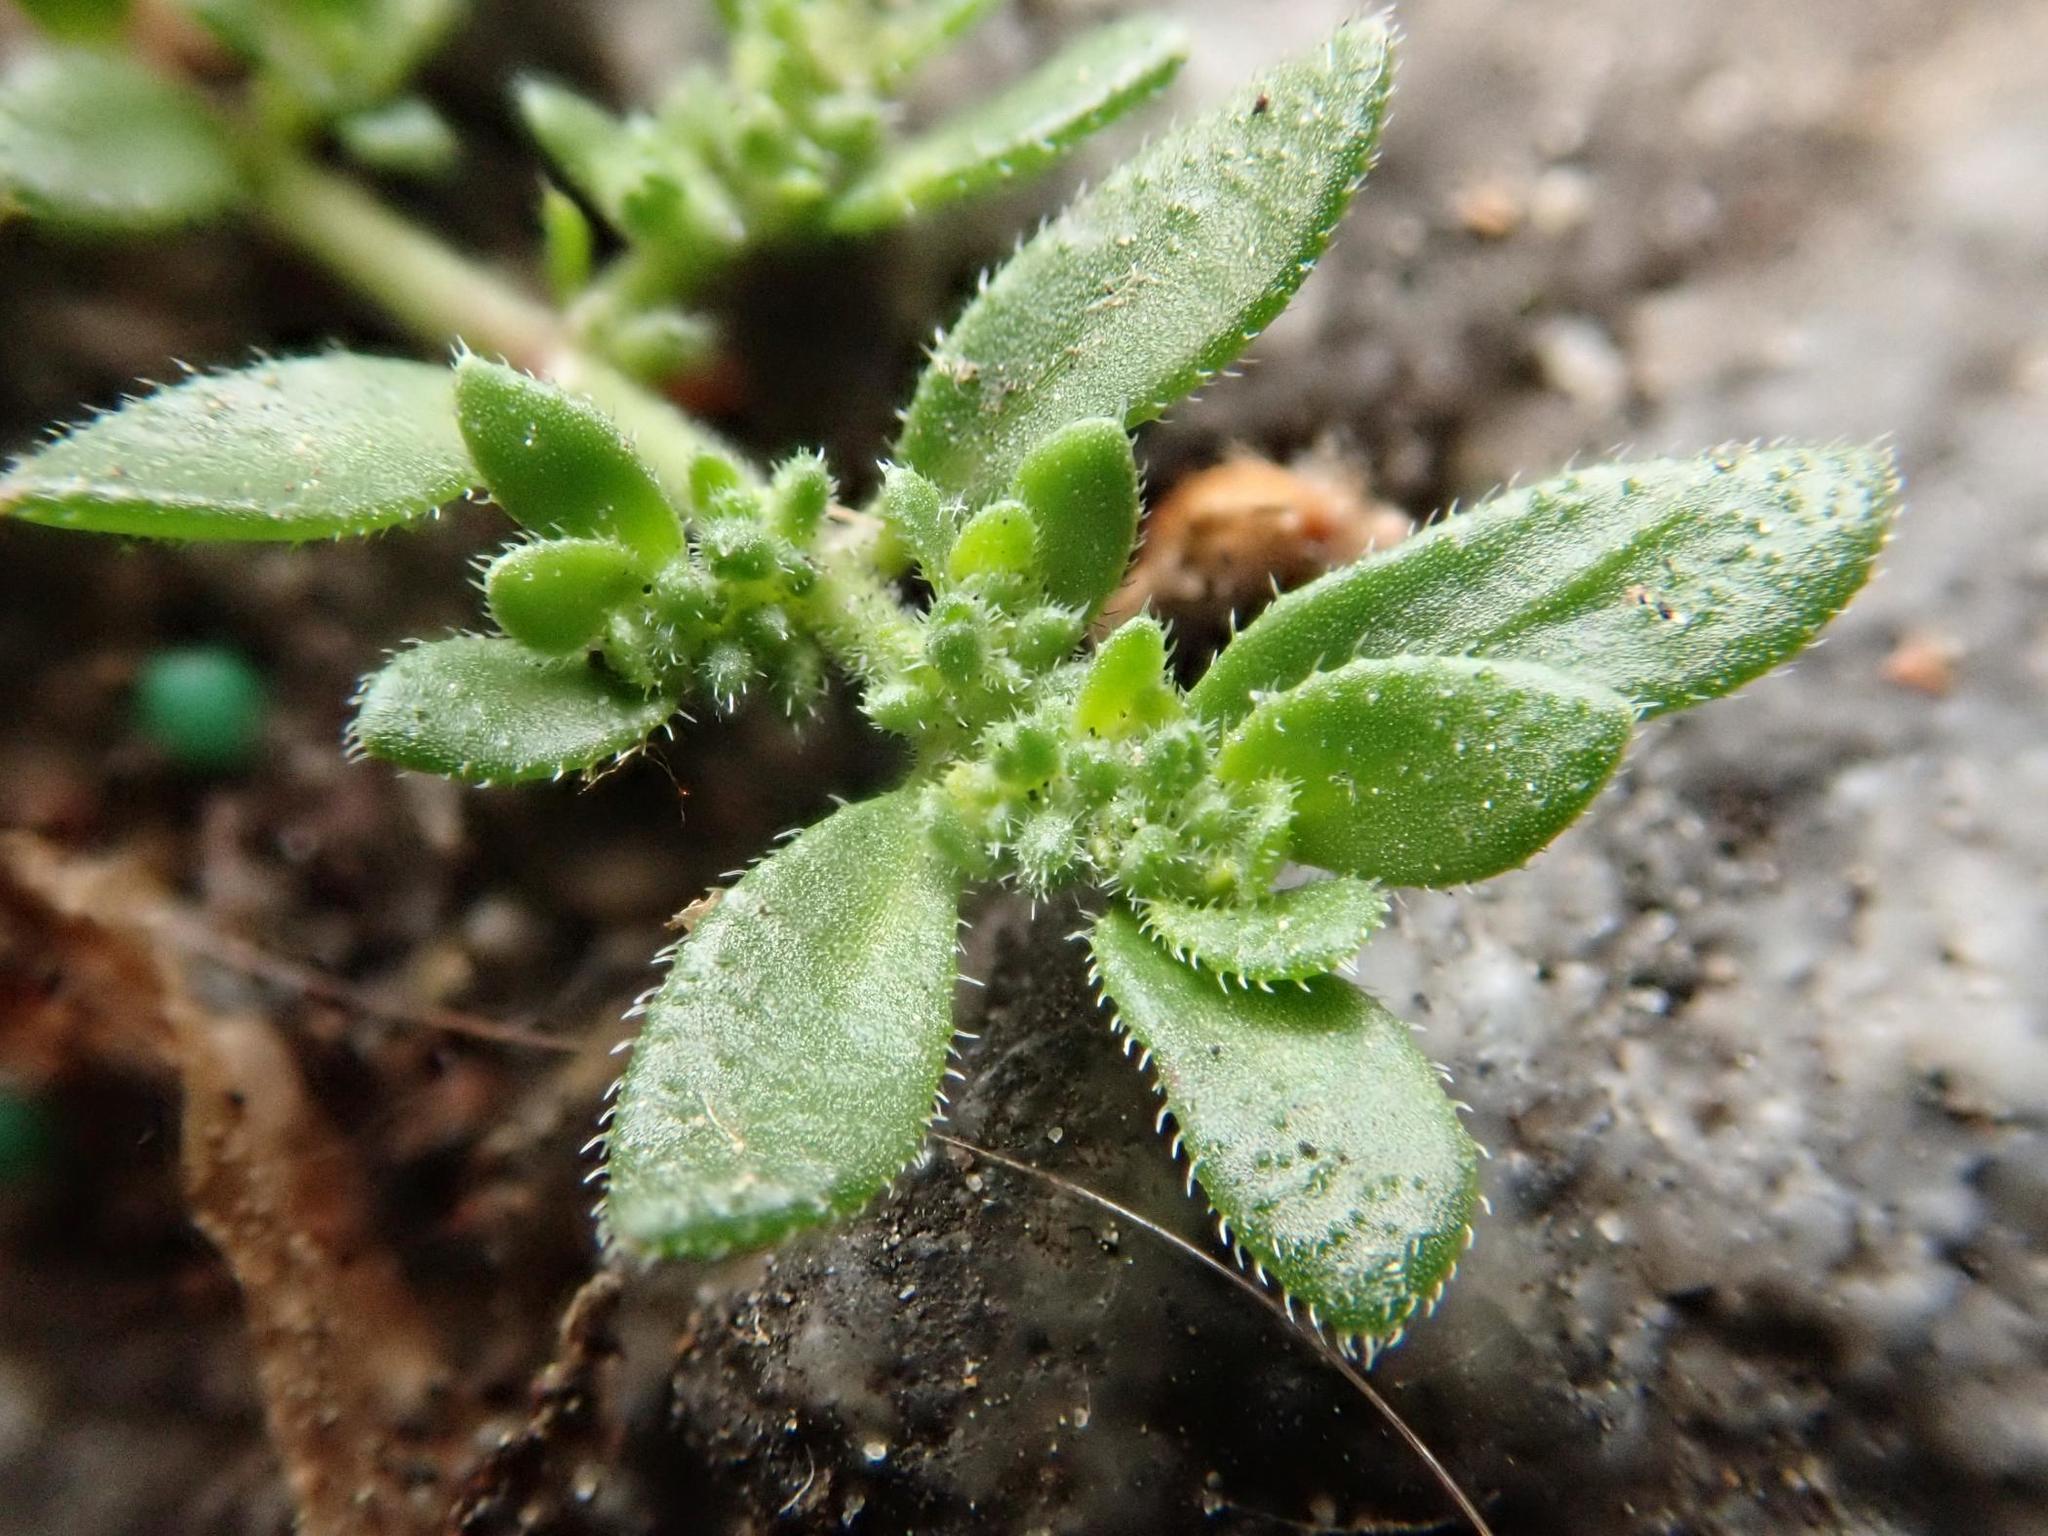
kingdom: Plantae
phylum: Tracheophyta
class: Magnoliopsida
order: Caryophyllales
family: Caryophyllaceae
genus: Herniaria
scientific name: Herniaria hirsuta
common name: Hairy rupturewort
